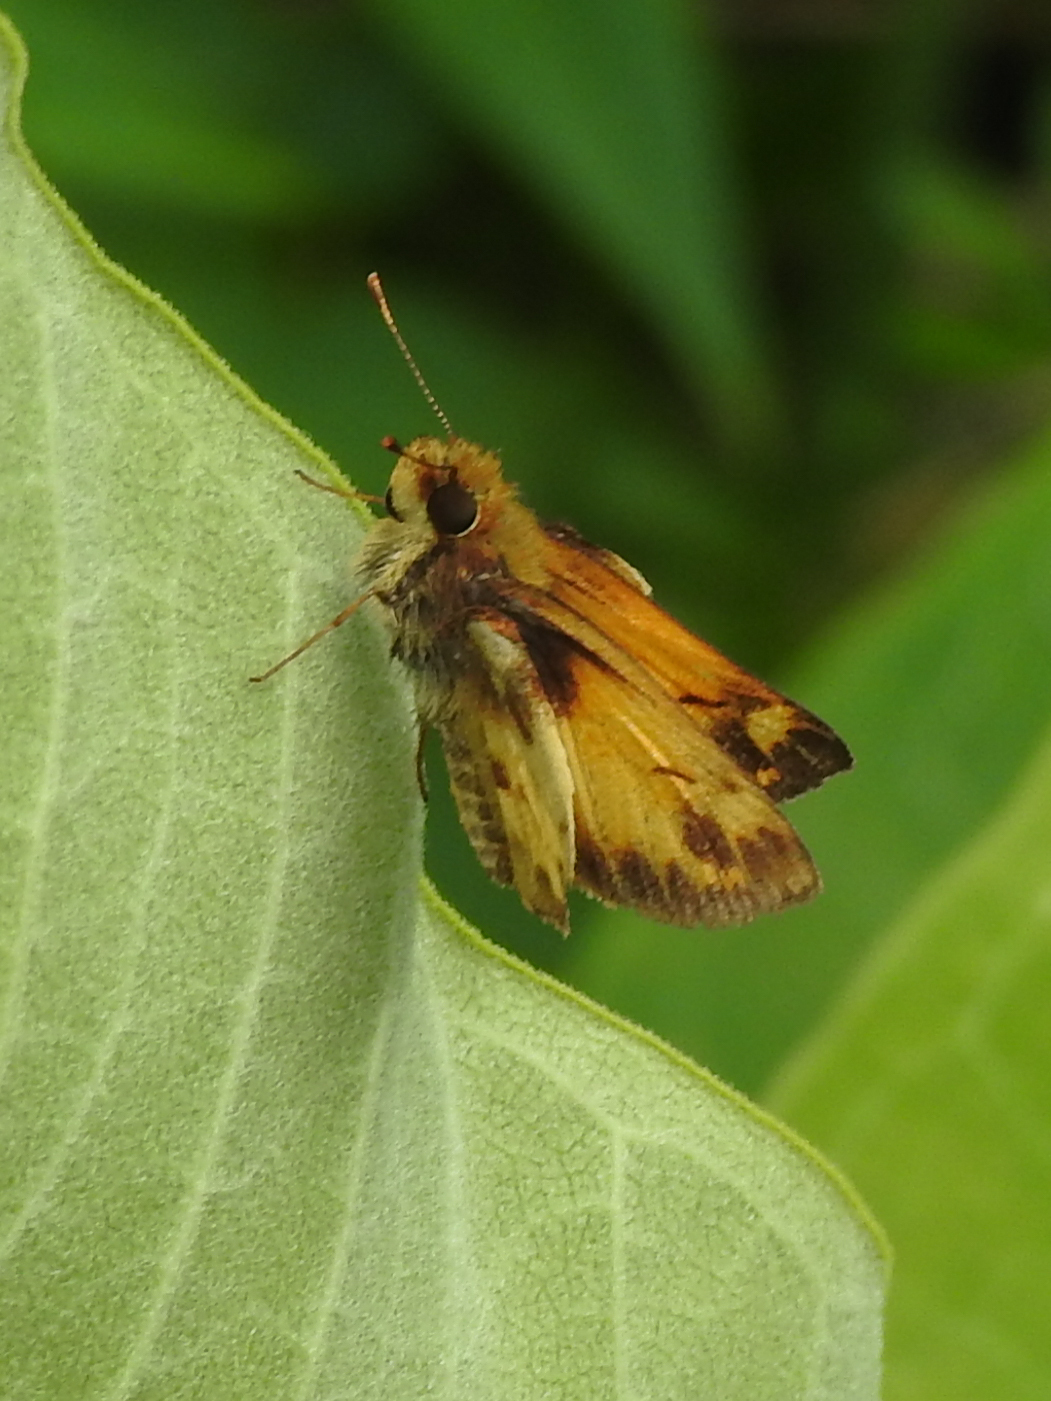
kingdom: Animalia
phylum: Arthropoda
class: Insecta
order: Lepidoptera
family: Hesperiidae
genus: Lon
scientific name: Lon zabulon
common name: Zabulon skipper
